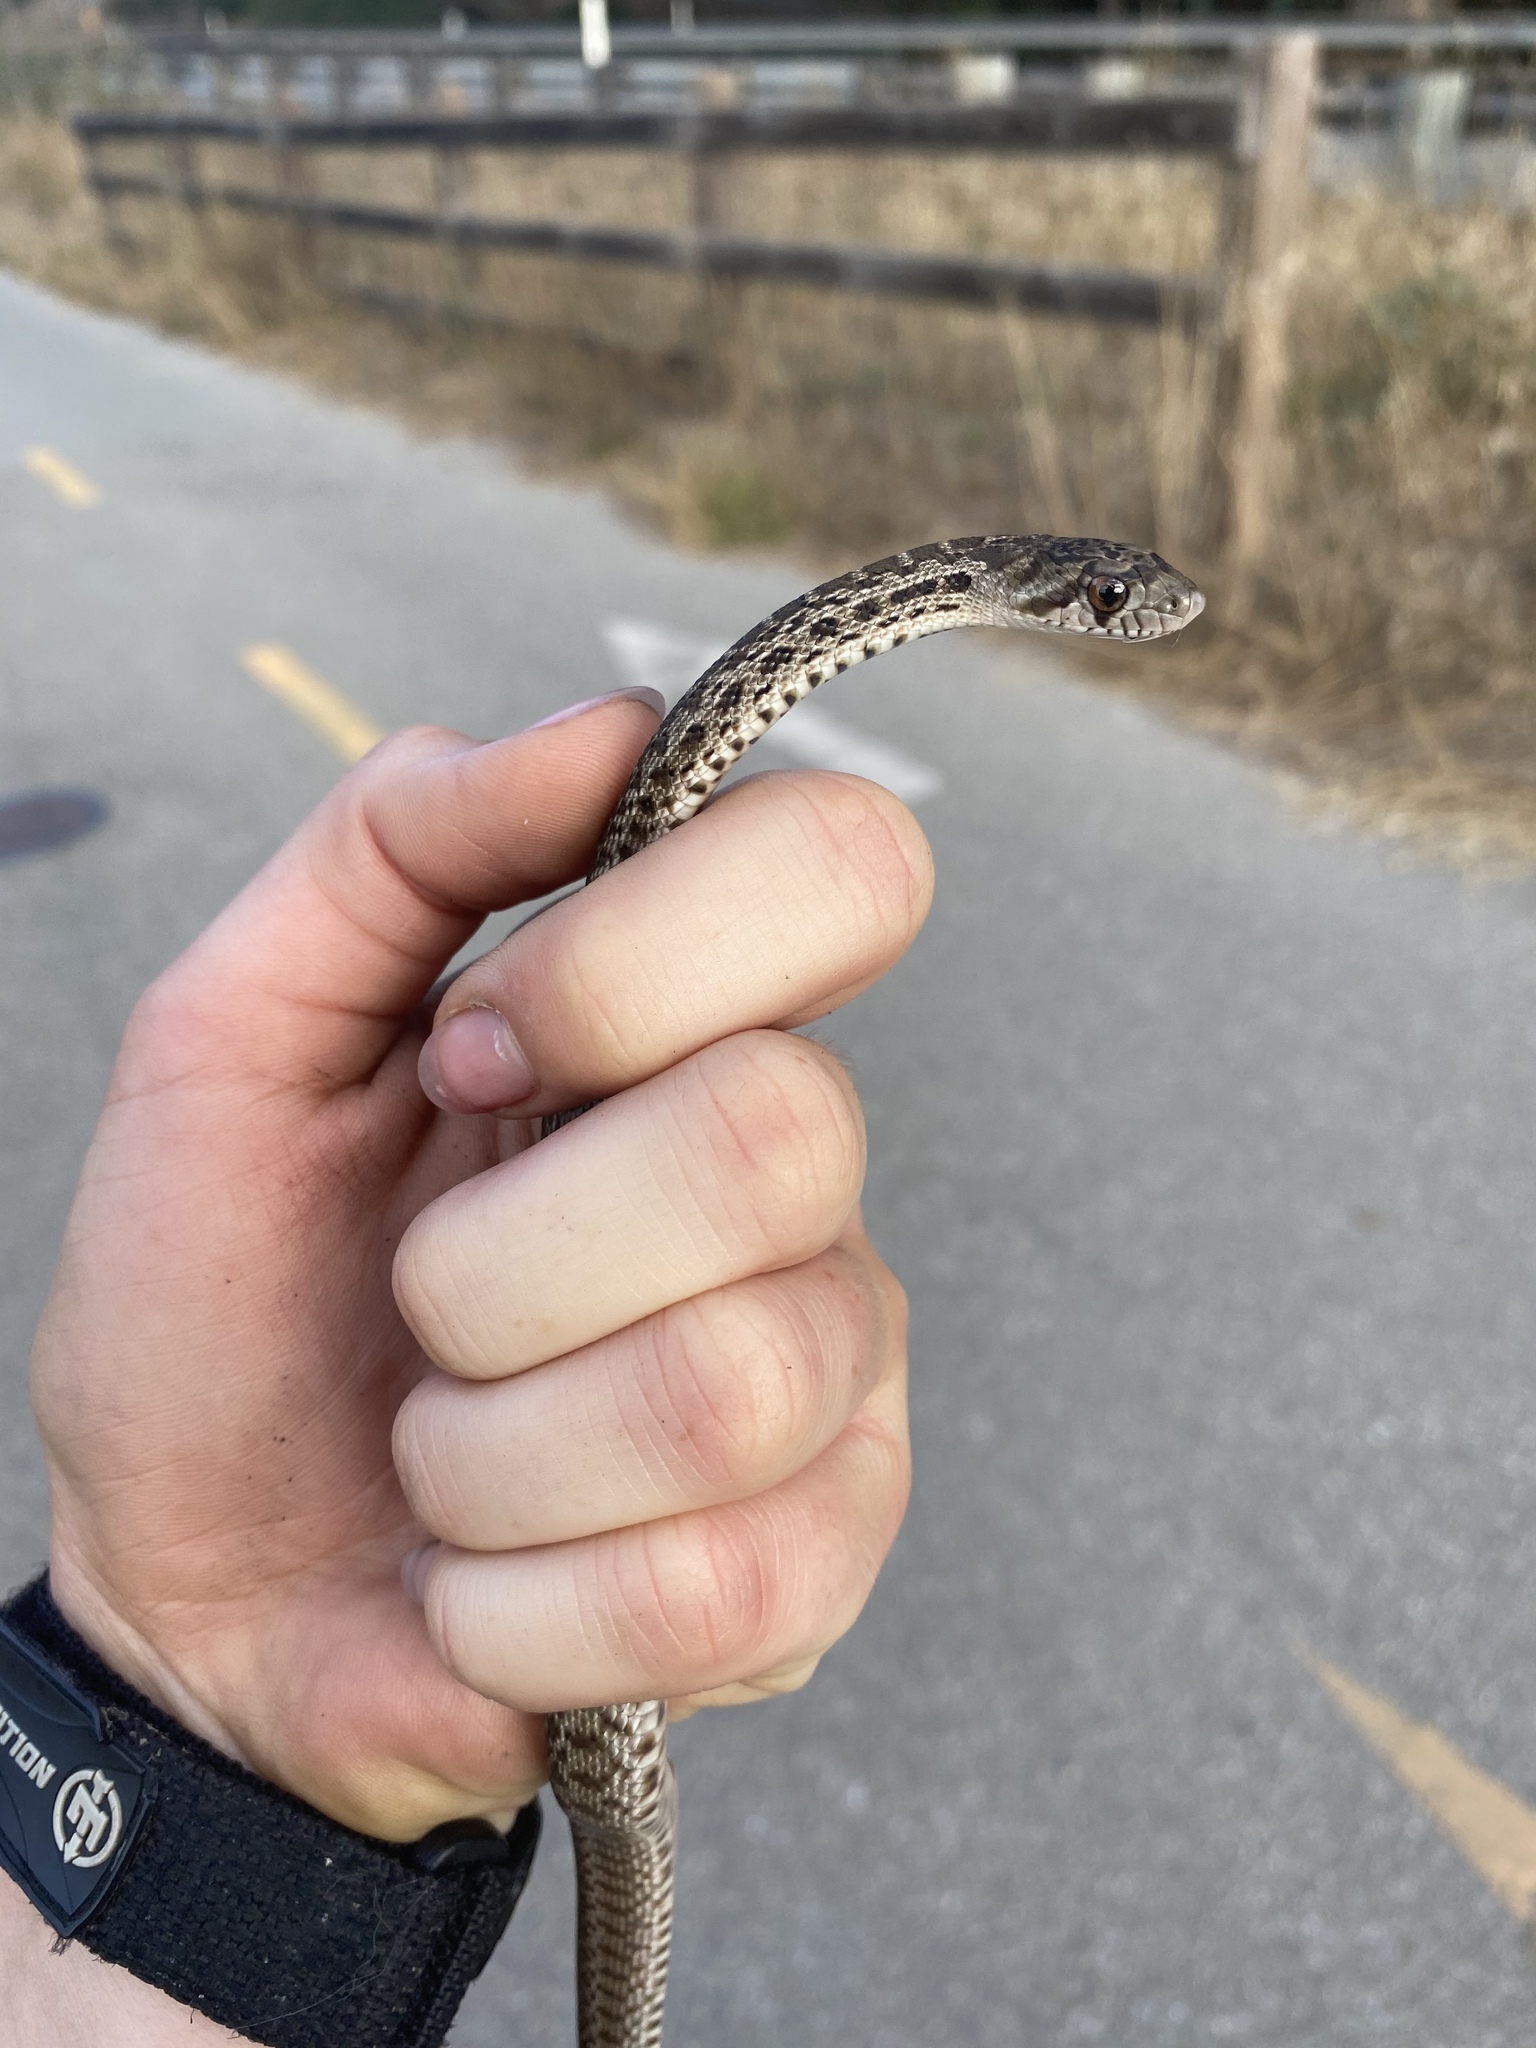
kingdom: Animalia
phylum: Chordata
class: Squamata
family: Colubridae
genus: Pituophis
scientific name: Pituophis catenifer
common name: Gopher snake
